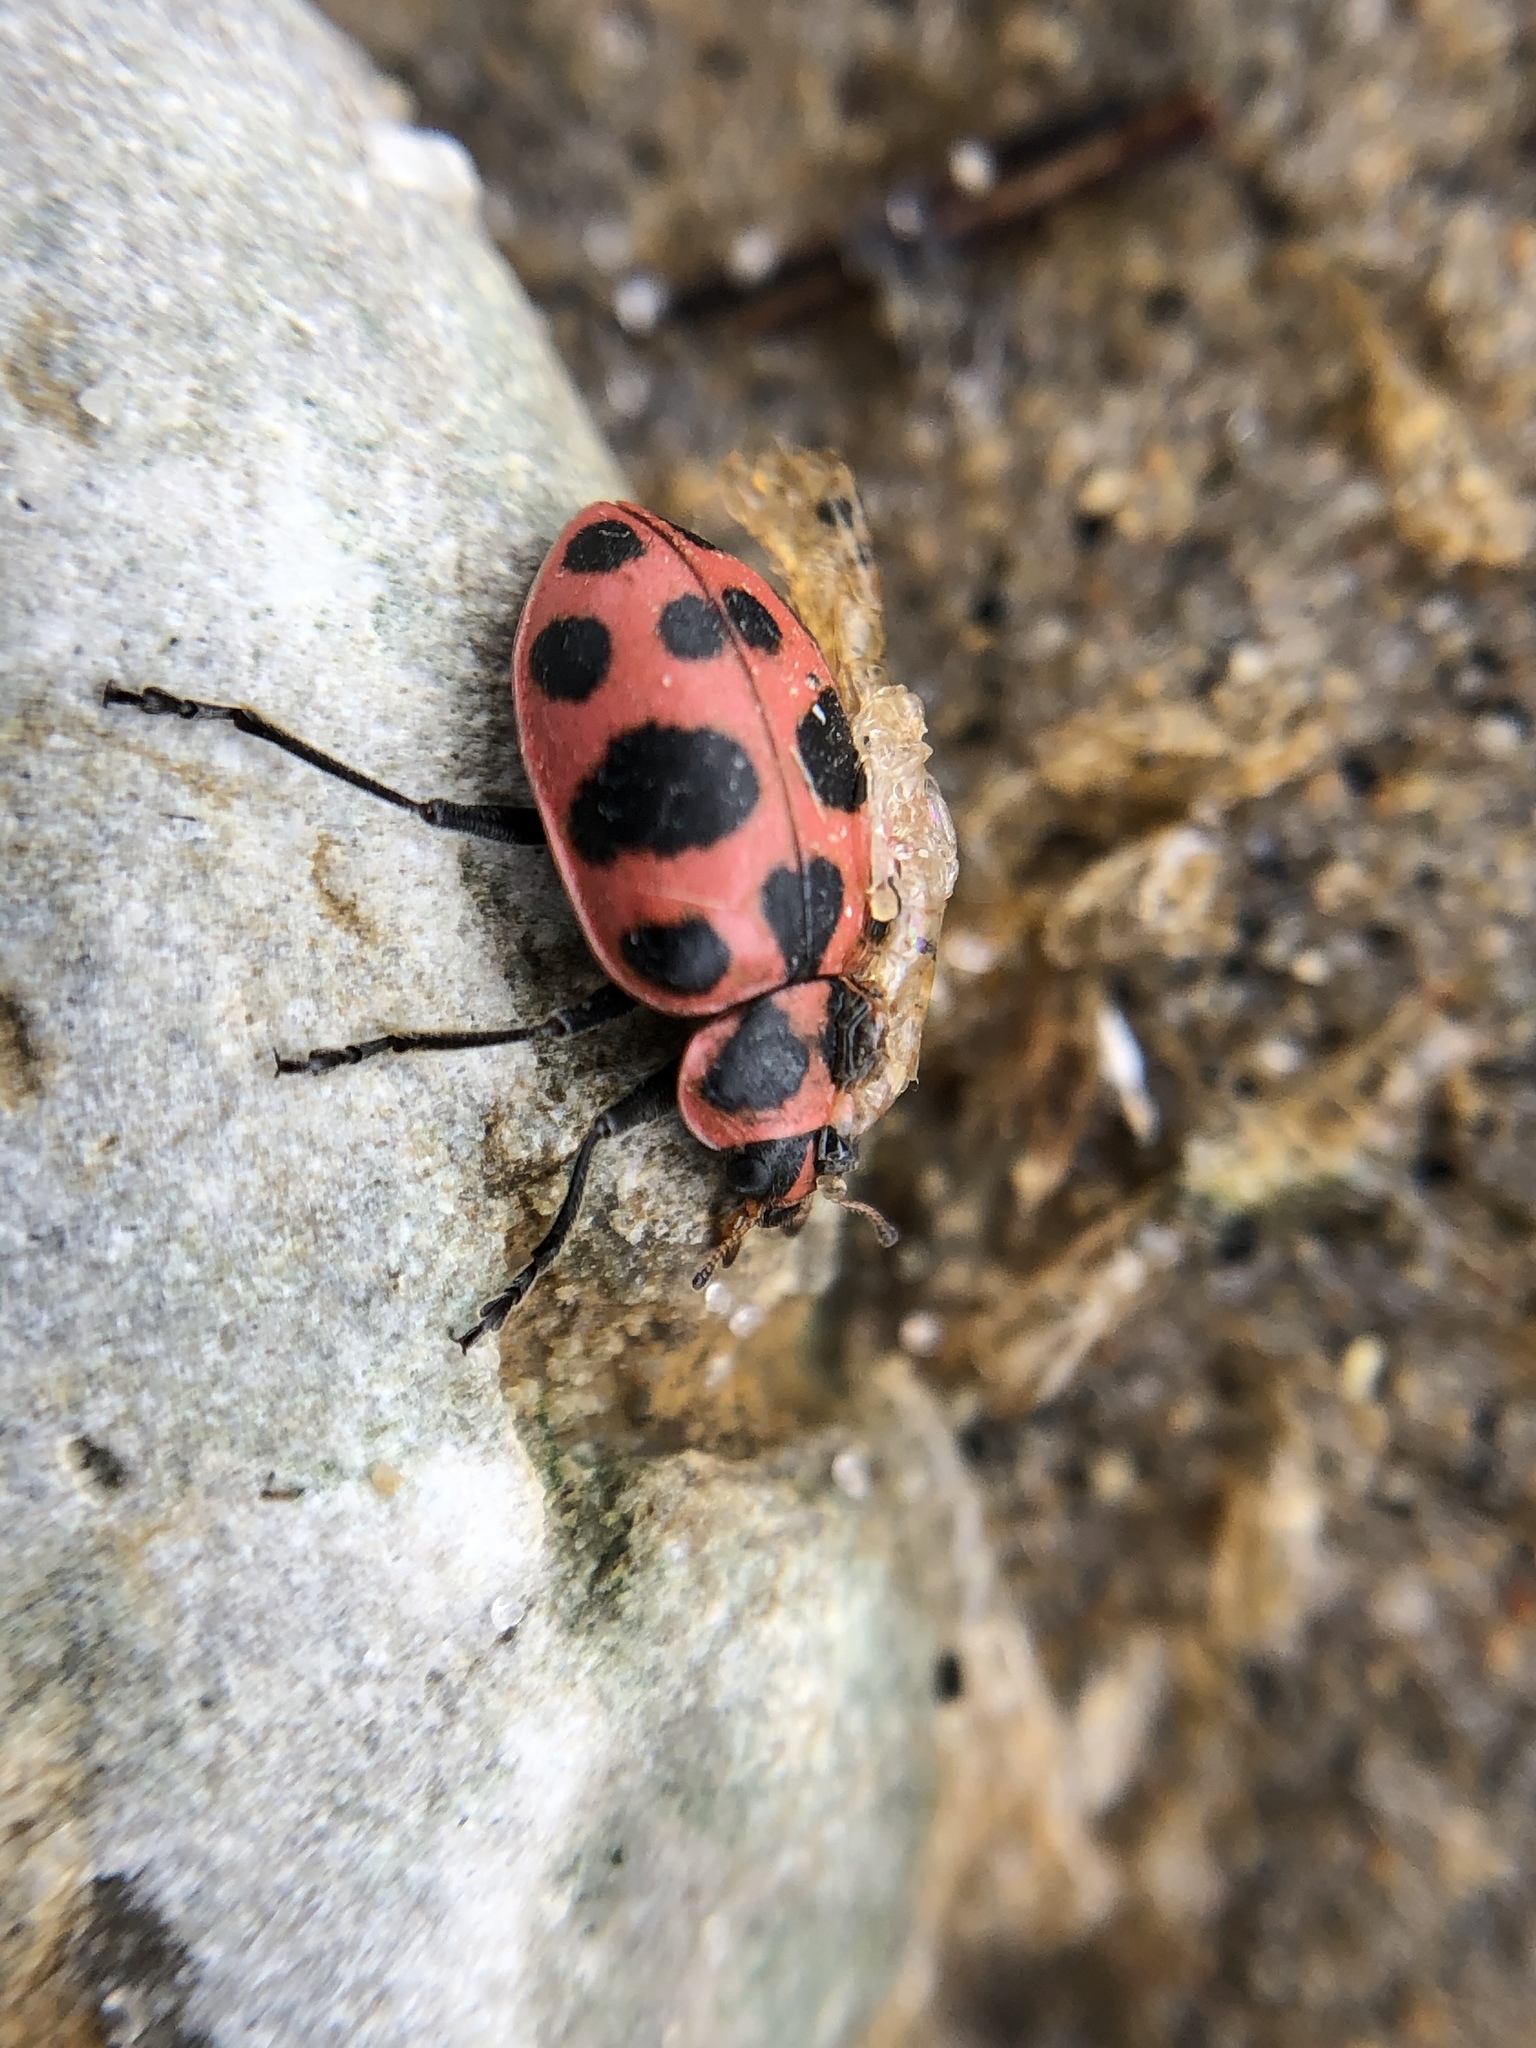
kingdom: Animalia
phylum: Arthropoda
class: Insecta
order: Coleoptera
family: Coccinellidae
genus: Coleomegilla
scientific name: Coleomegilla maculata
